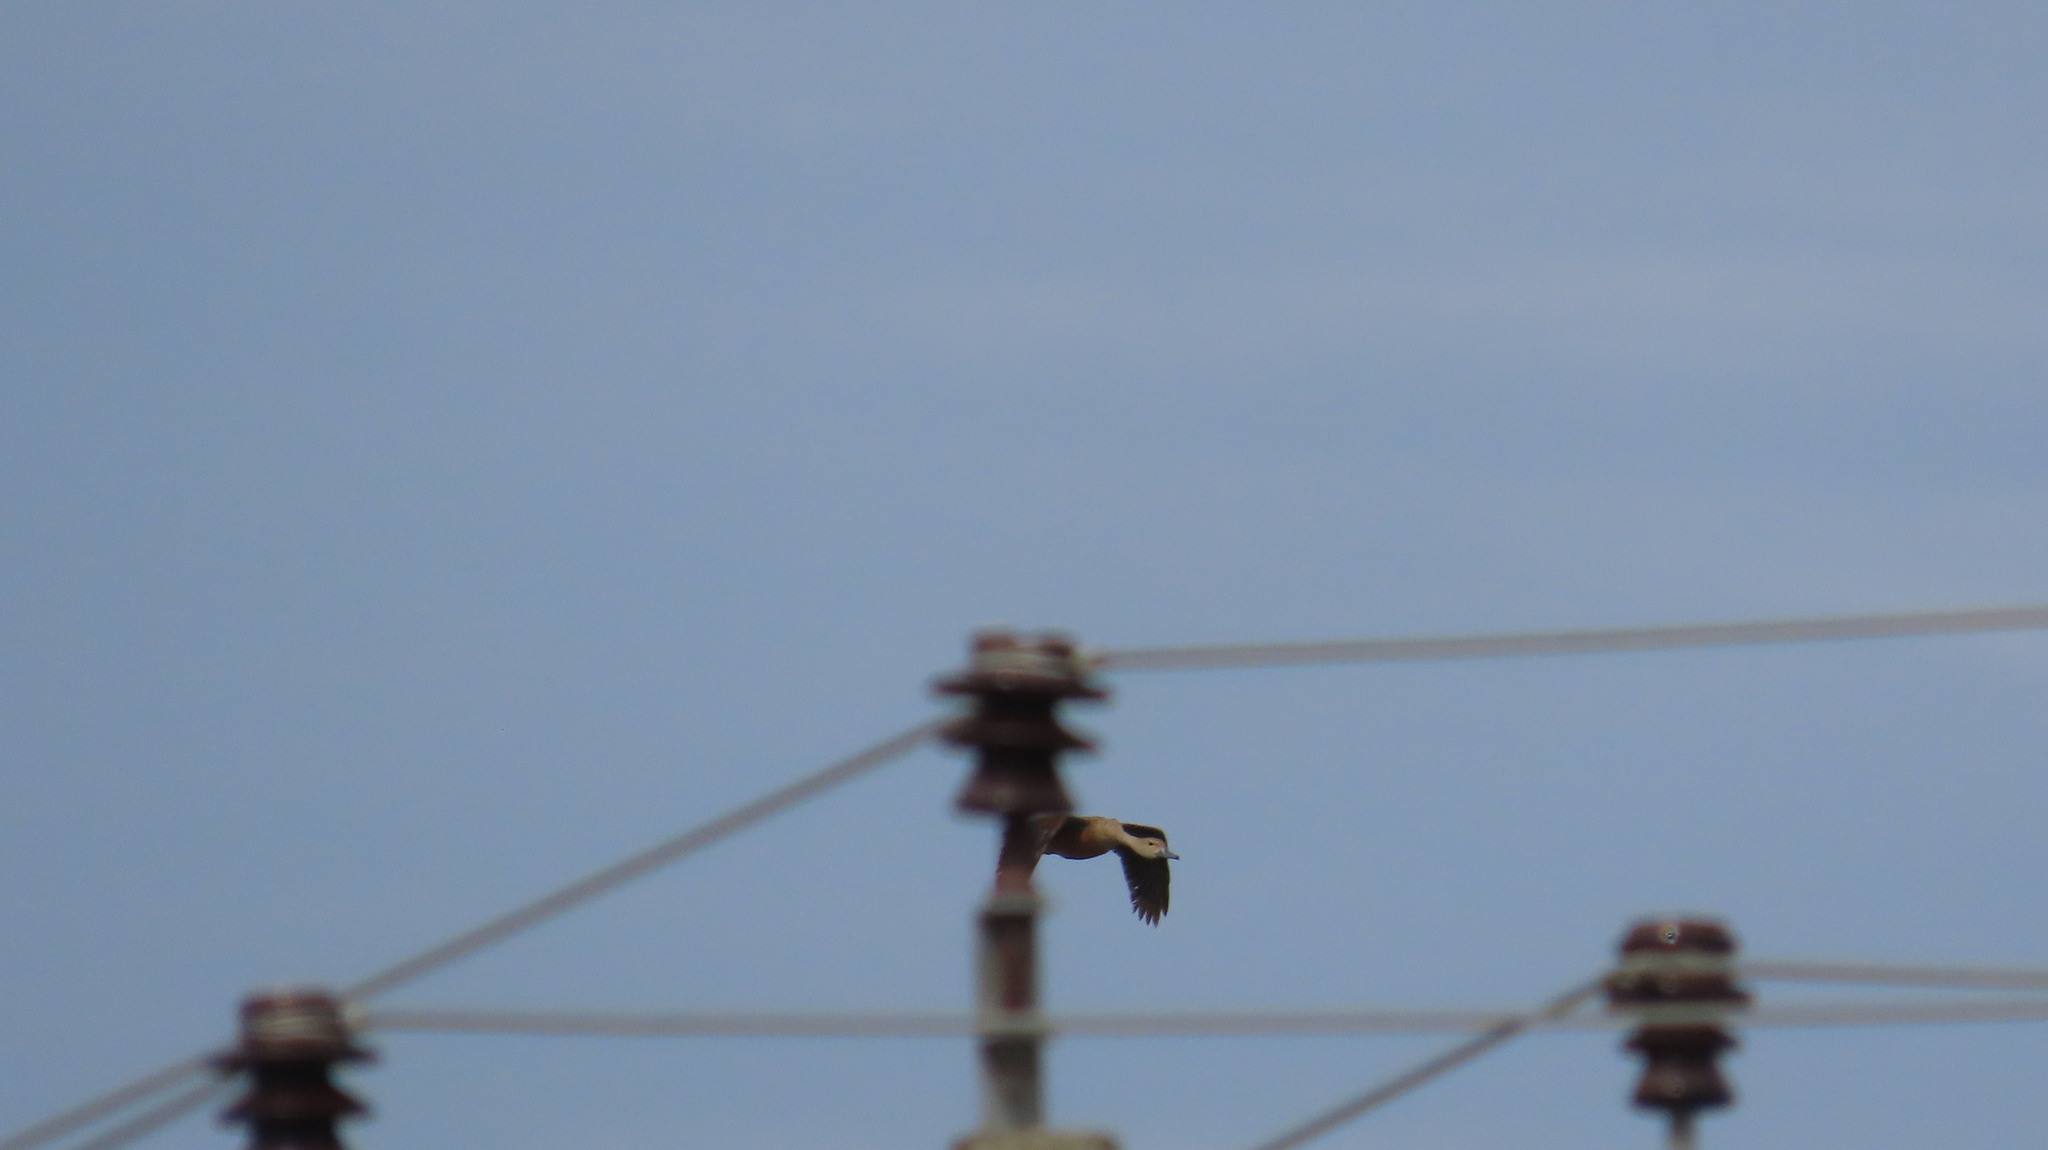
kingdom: Animalia
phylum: Chordata
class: Aves
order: Anseriformes
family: Anatidae
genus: Dendrocygna
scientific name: Dendrocygna javanica
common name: Lesser whistling-duck
